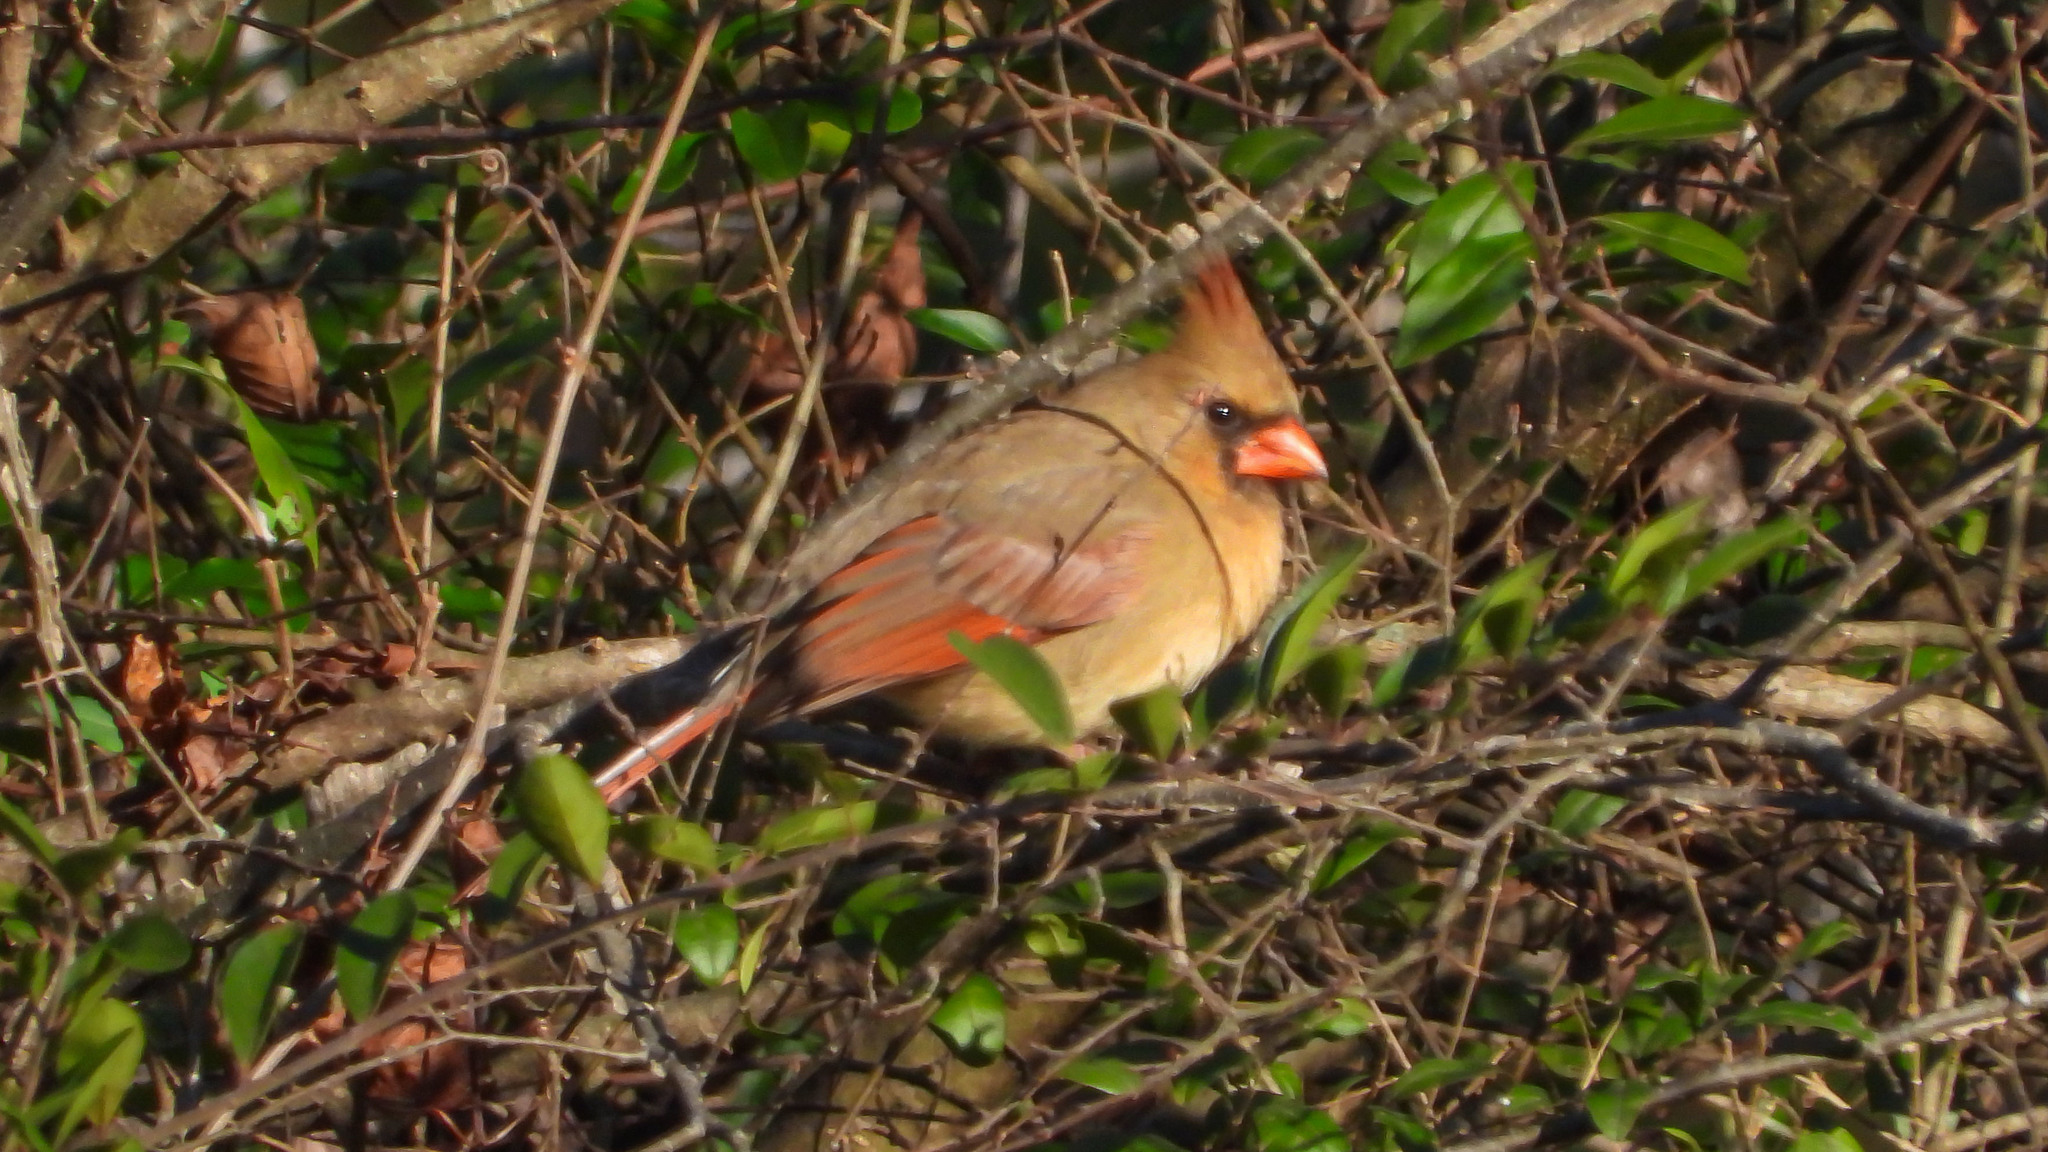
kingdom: Animalia
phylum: Chordata
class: Aves
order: Passeriformes
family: Cardinalidae
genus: Cardinalis
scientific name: Cardinalis cardinalis
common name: Northern cardinal
